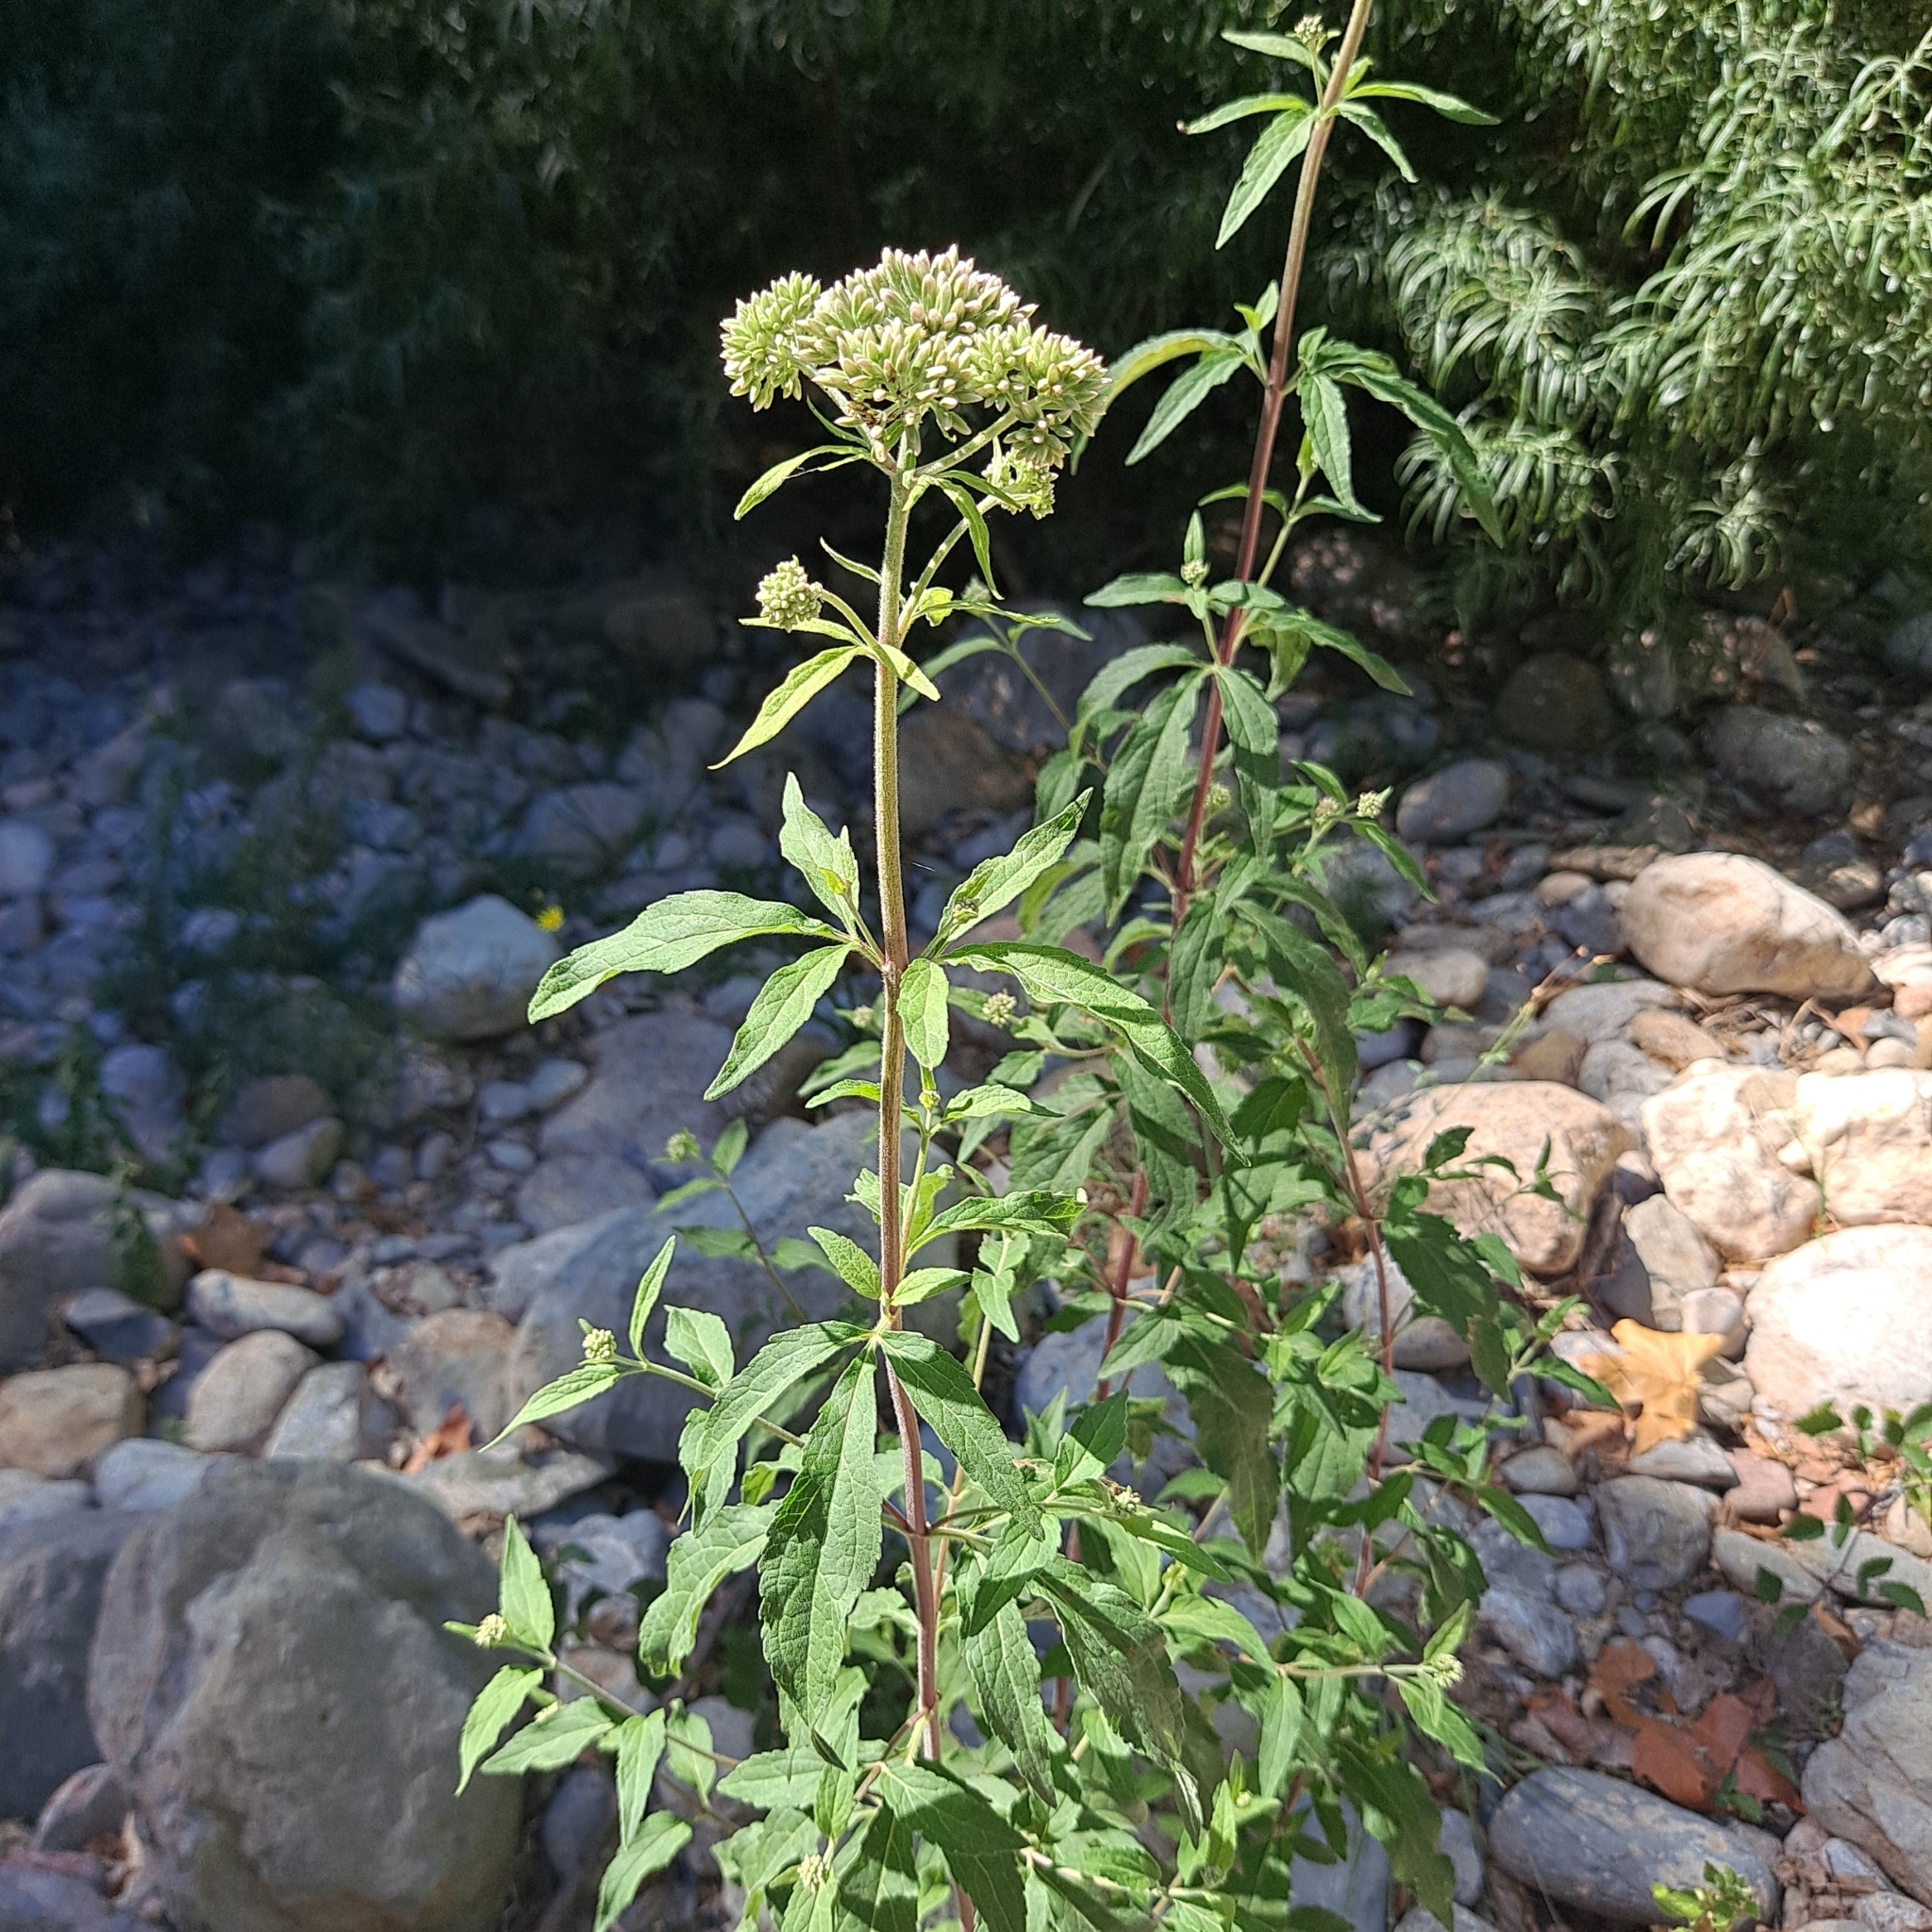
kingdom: Plantae
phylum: Tracheophyta
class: Magnoliopsida
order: Asterales
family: Asteraceae
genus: Eupatorium
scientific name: Eupatorium cannabinum
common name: Hemp-agrimony
